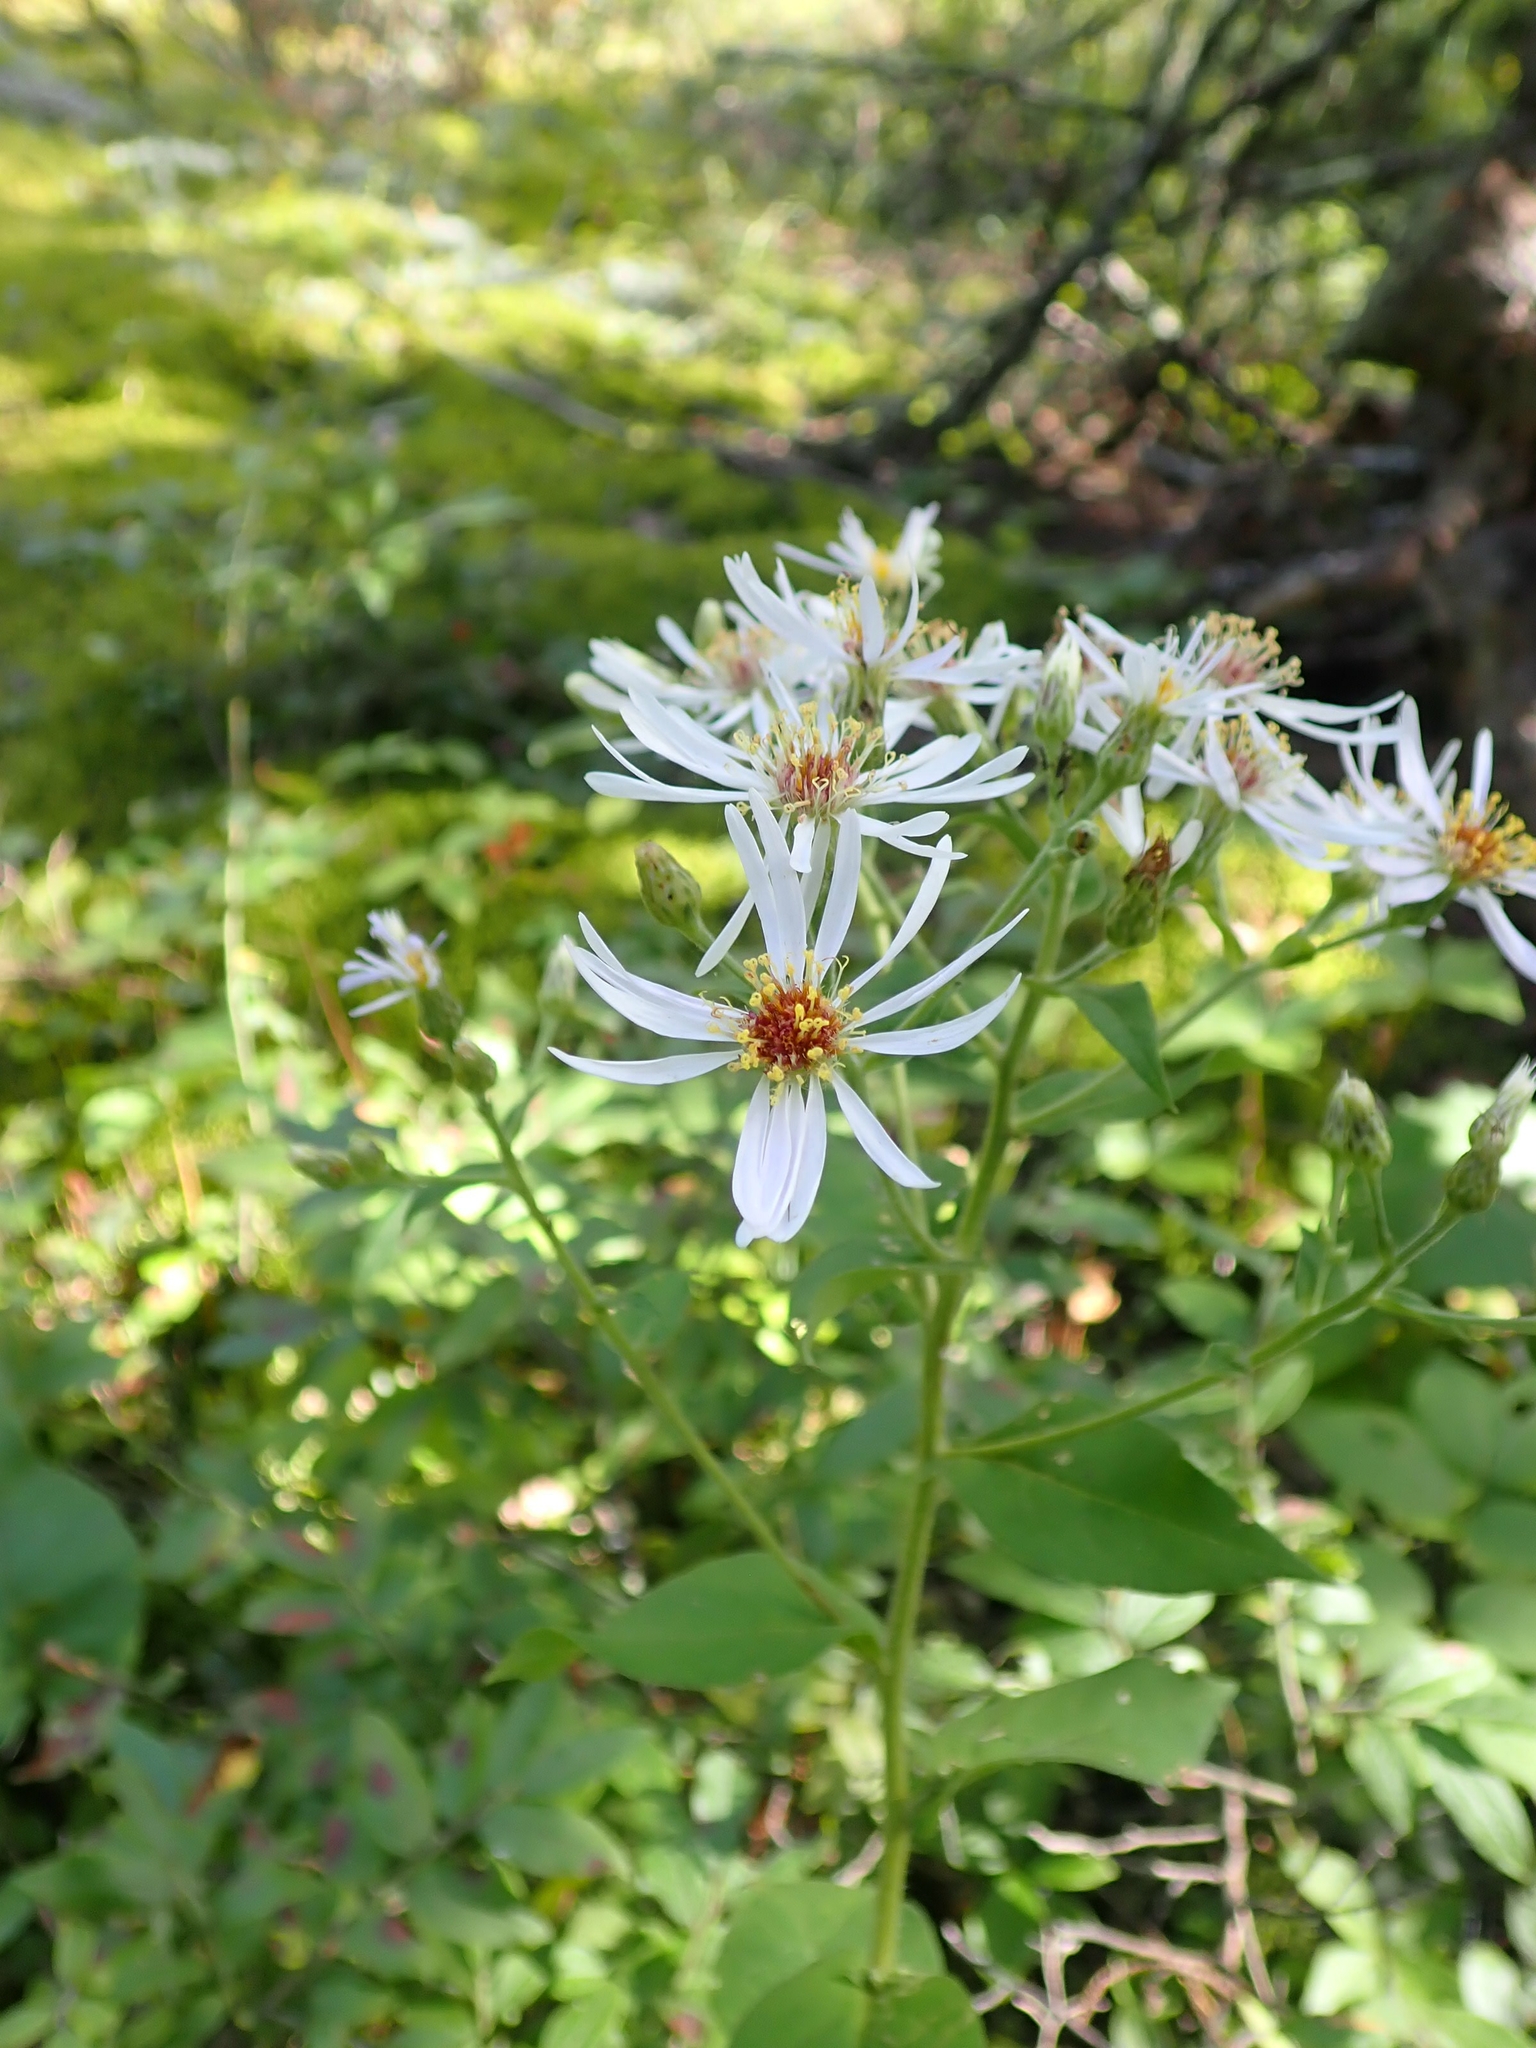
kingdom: Plantae
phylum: Tracheophyta
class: Magnoliopsida
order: Asterales
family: Asteraceae
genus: Eurybia
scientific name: Eurybia macrophylla
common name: Big-leaved aster
